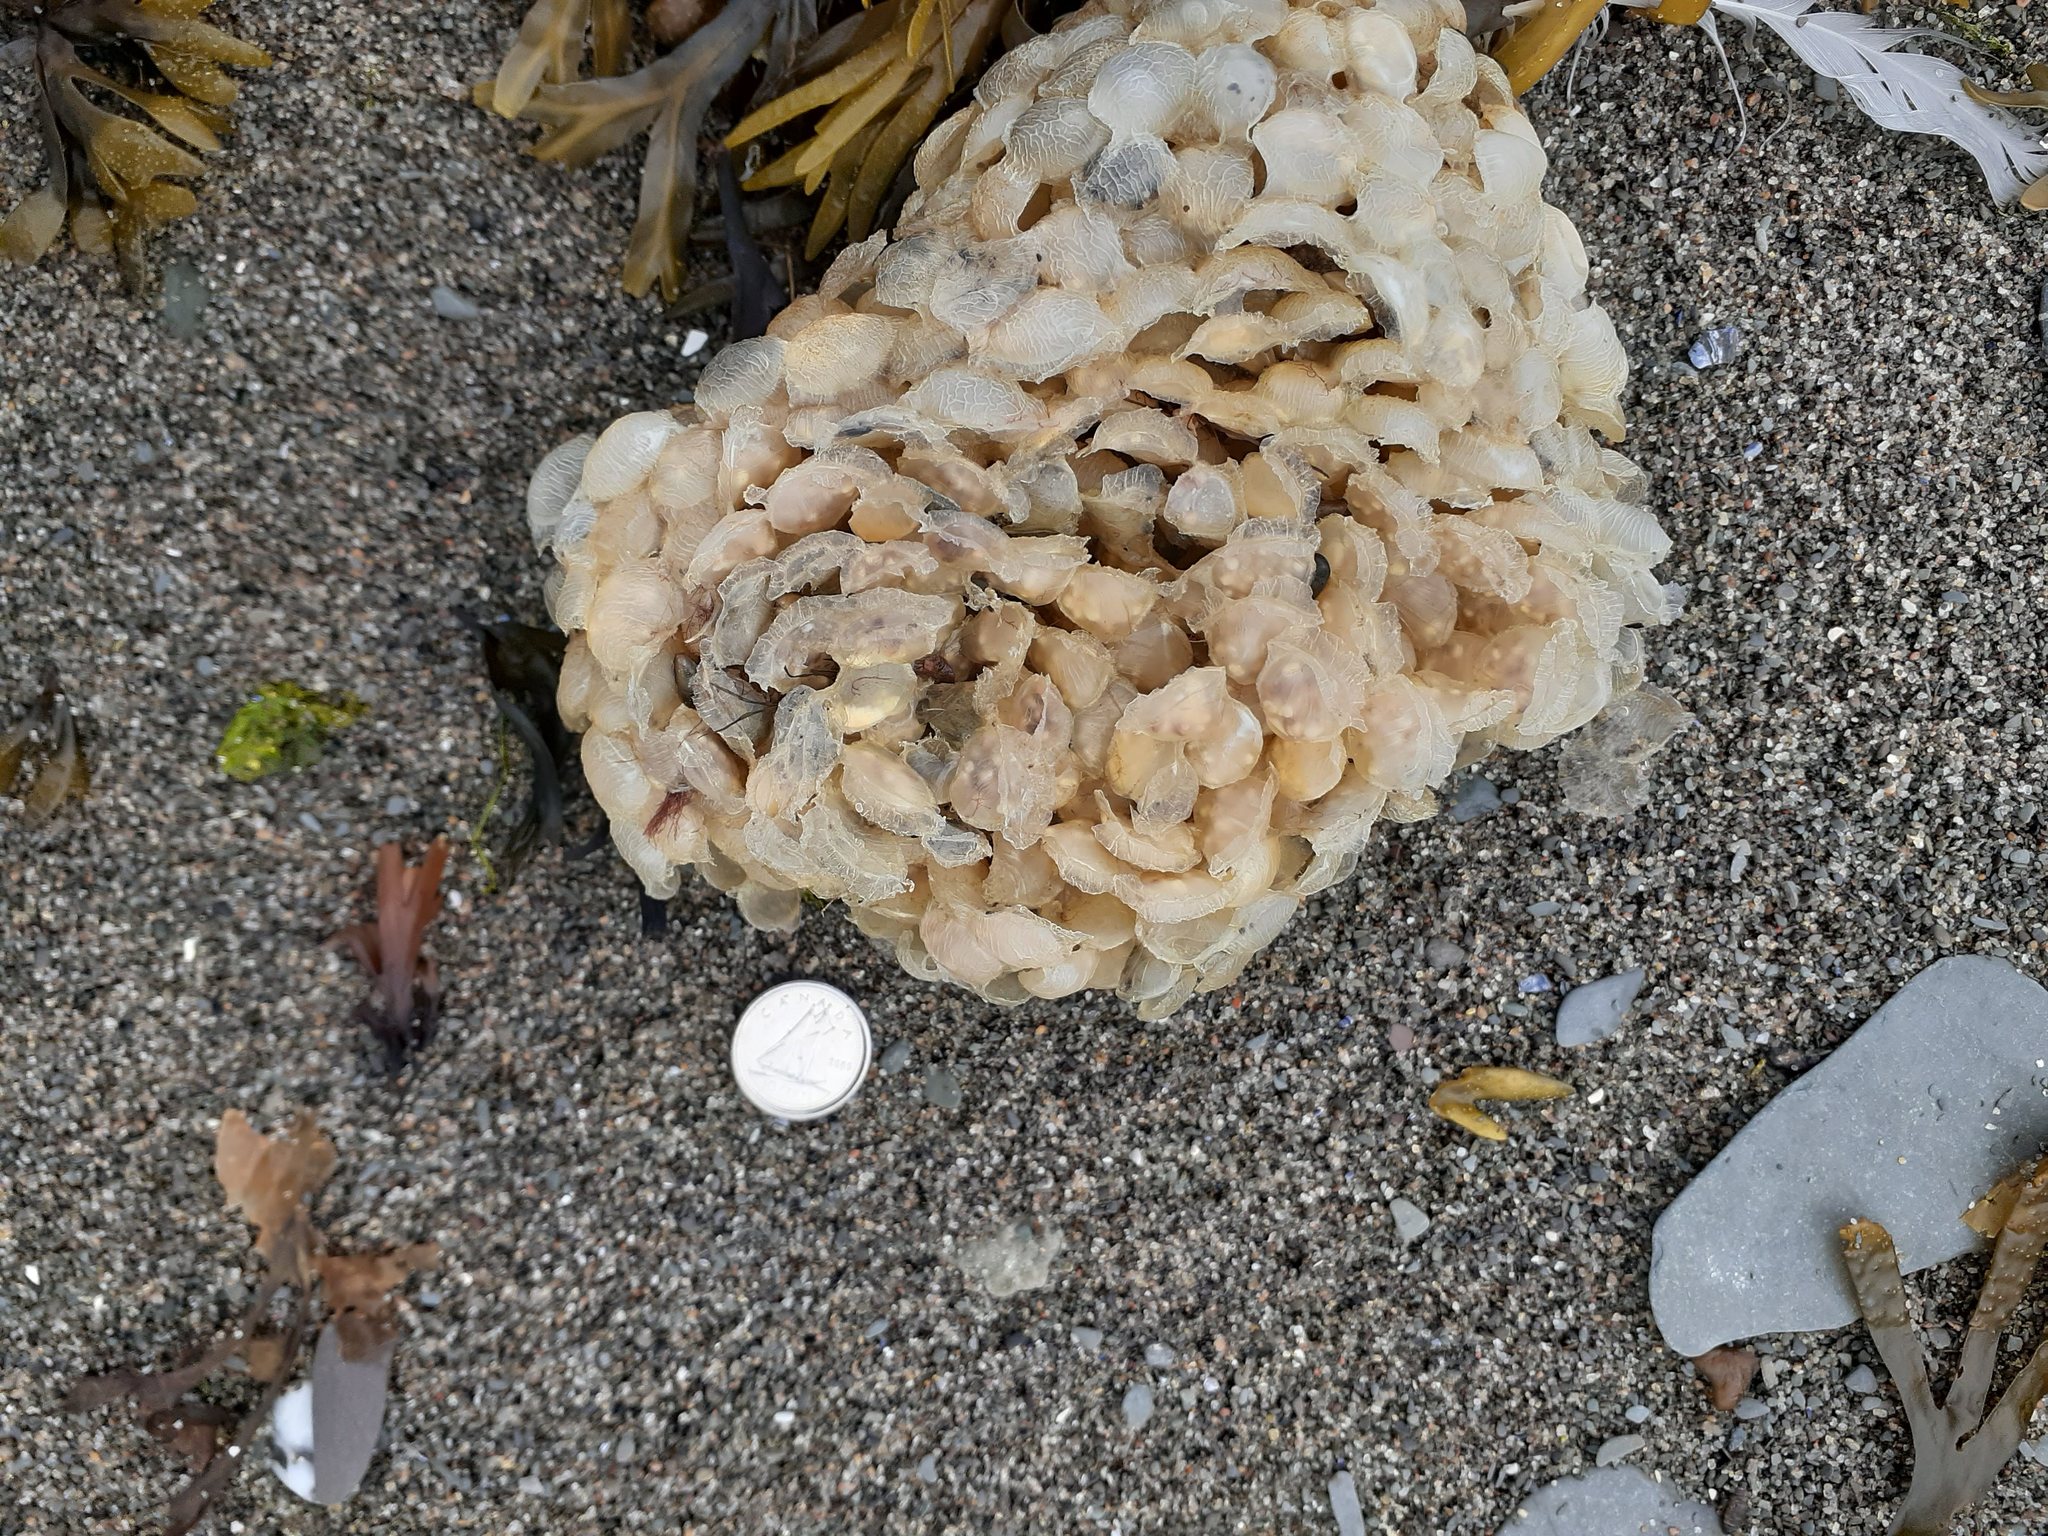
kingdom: Animalia
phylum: Mollusca
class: Gastropoda
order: Neogastropoda
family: Buccinidae
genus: Buccinum
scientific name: Buccinum undatum
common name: Common whelk
